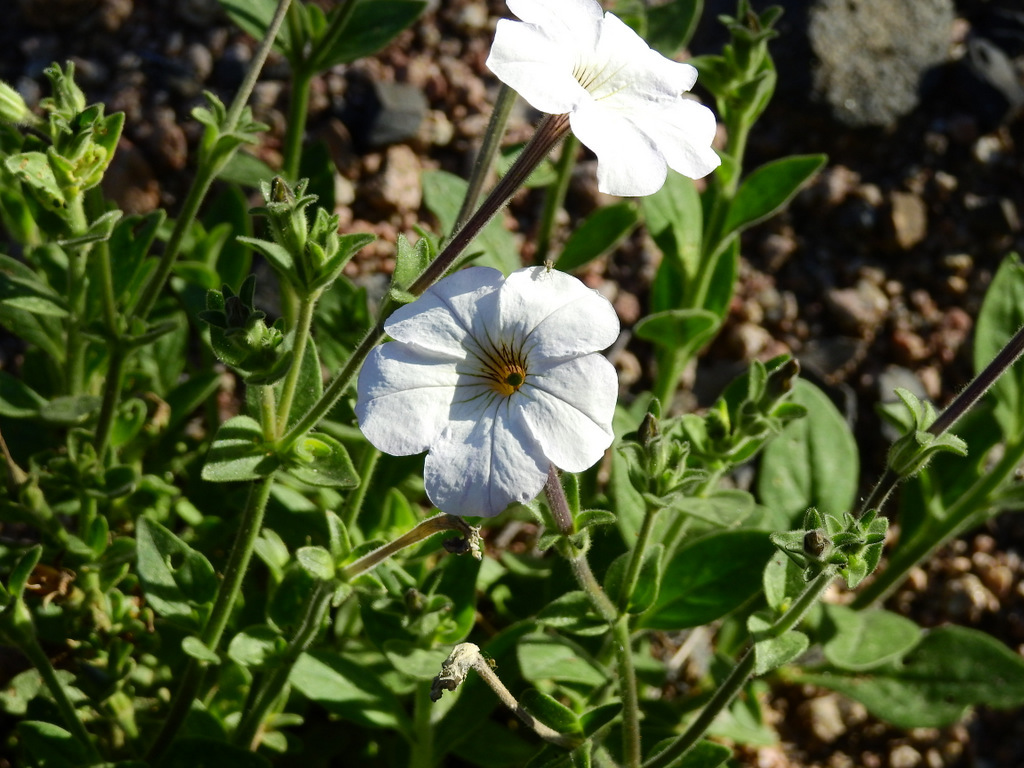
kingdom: Plantae
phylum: Tracheophyta
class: Magnoliopsida
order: Solanales
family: Solanaceae
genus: Petunia
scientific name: Petunia axillaris
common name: Large white petunia
